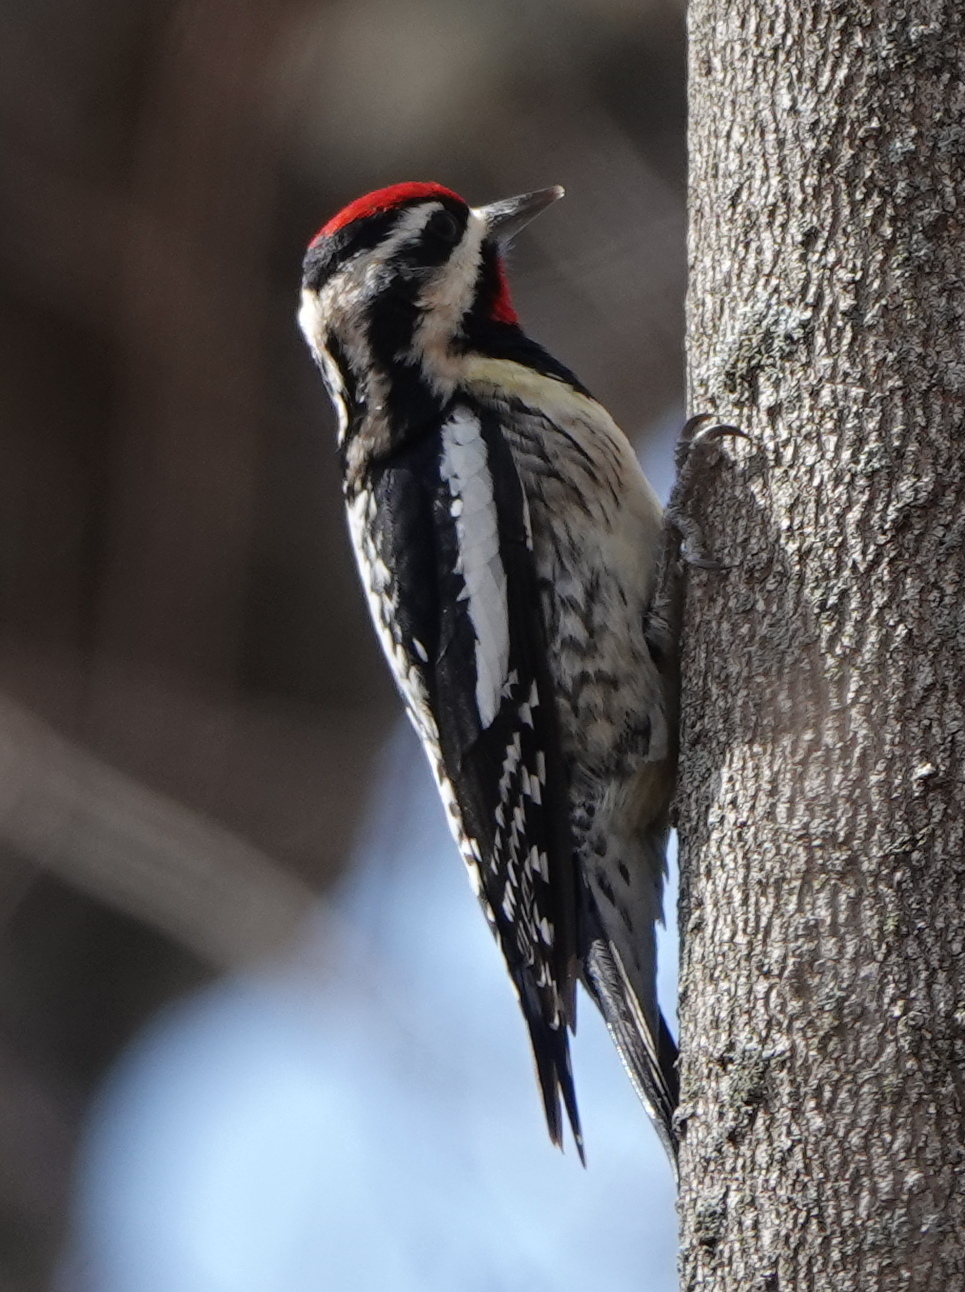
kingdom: Animalia
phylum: Chordata
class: Aves
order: Piciformes
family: Picidae
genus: Sphyrapicus
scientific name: Sphyrapicus varius
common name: Yellow-bellied sapsucker
